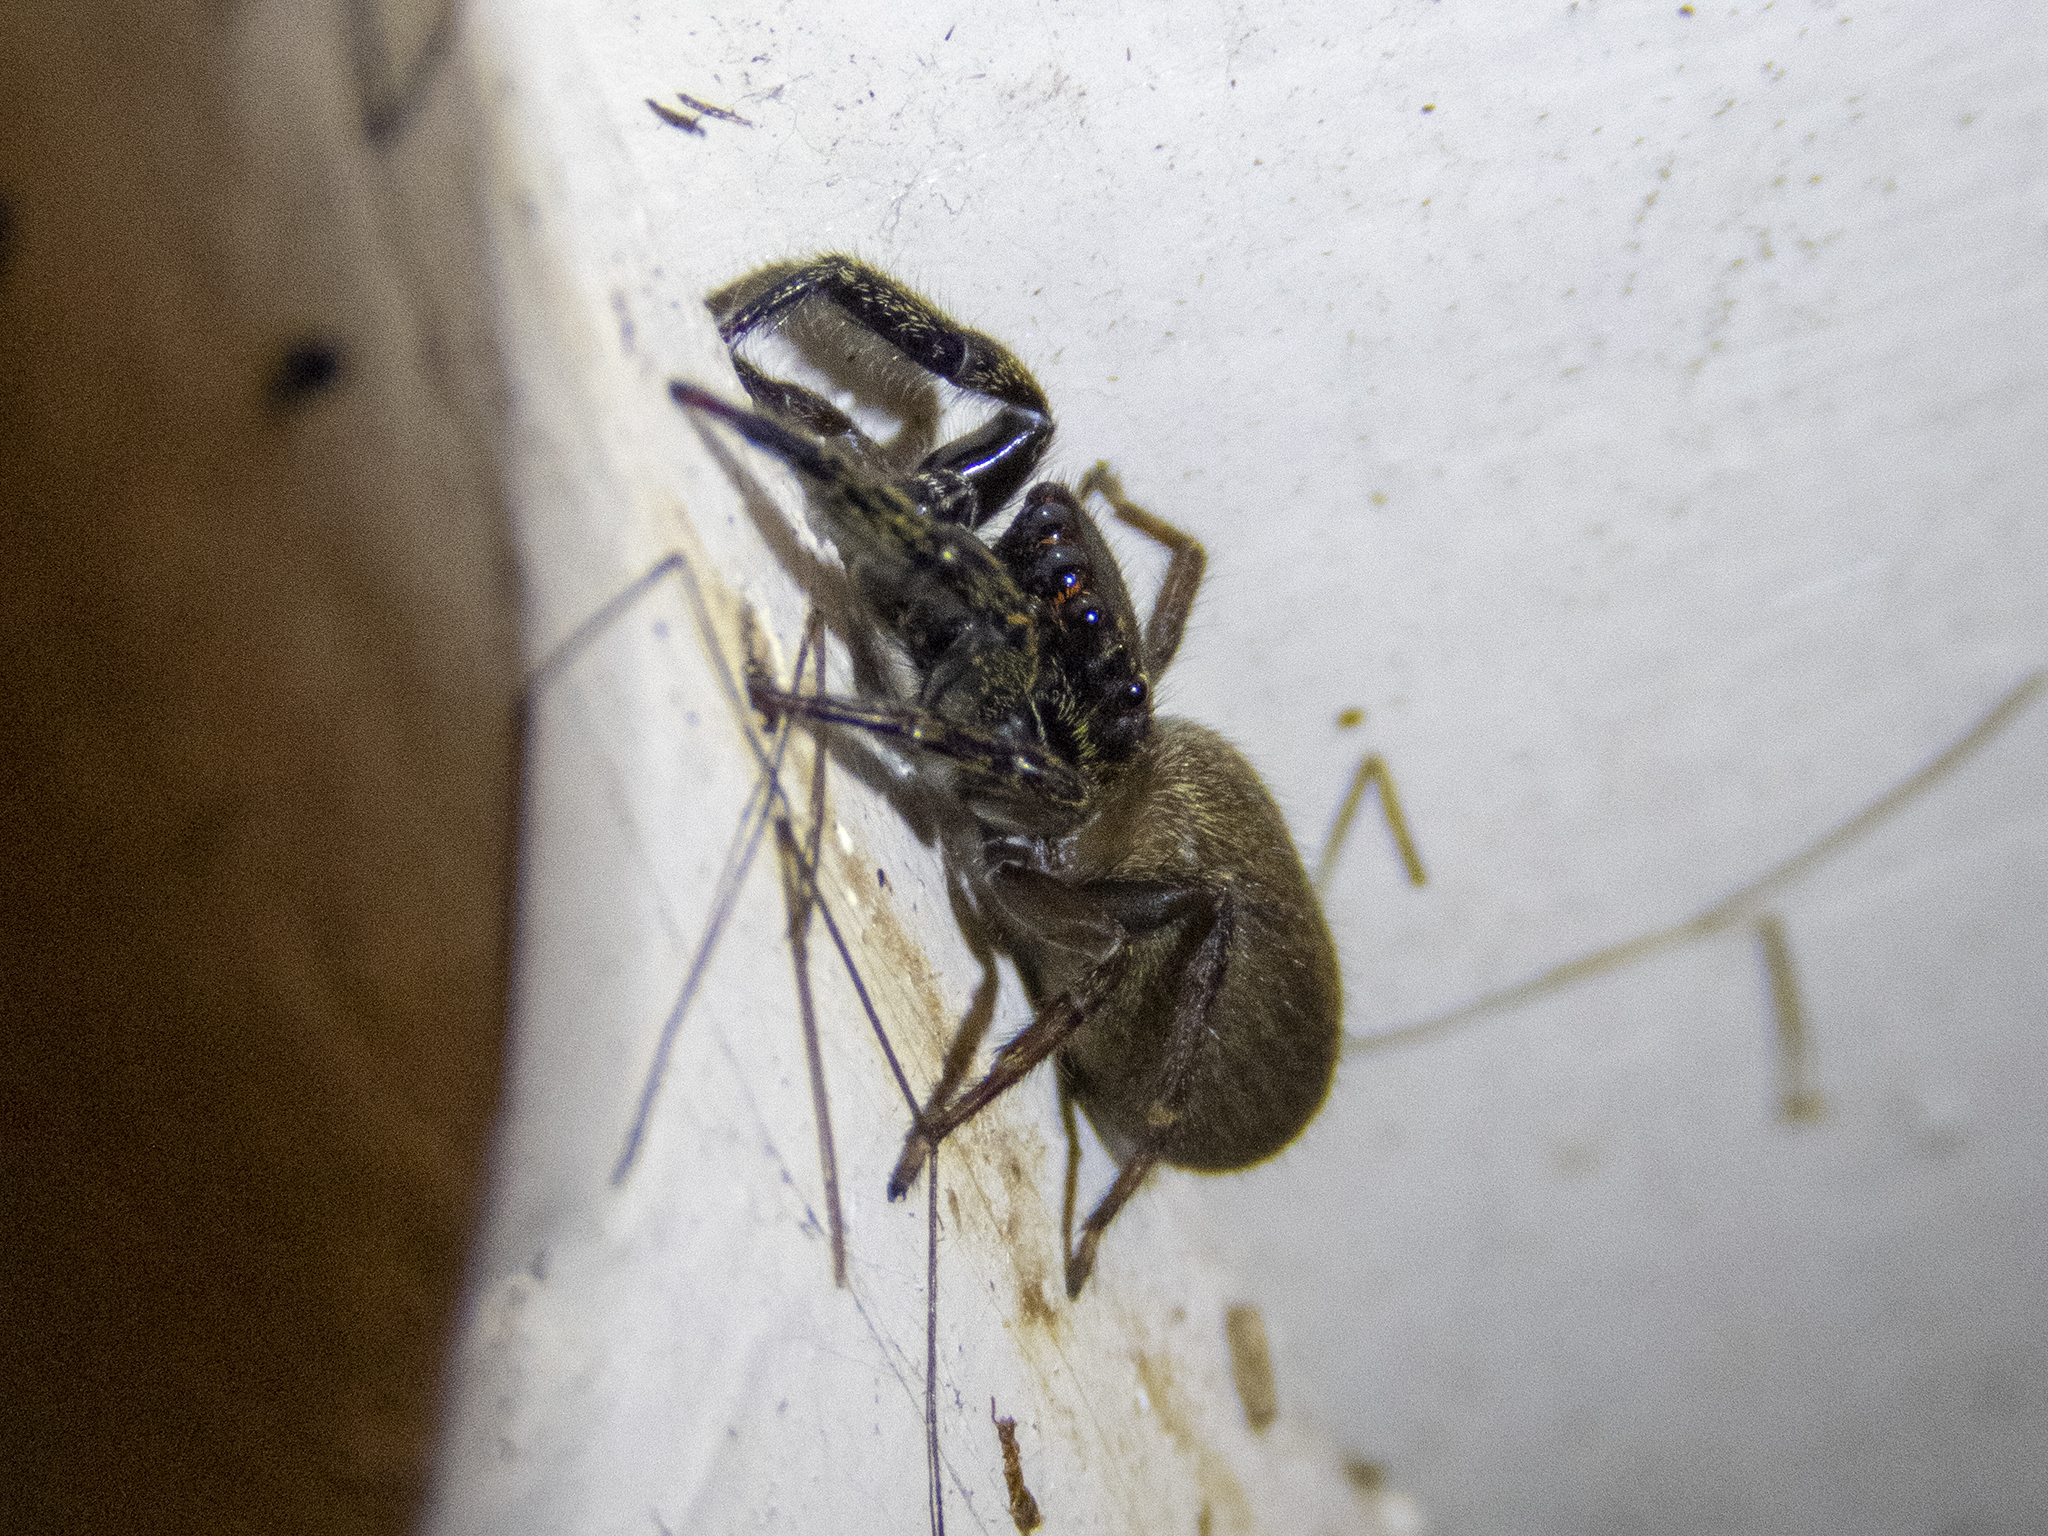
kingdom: Animalia
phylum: Arthropoda
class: Arachnida
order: Araneae
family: Salticidae
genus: Trite
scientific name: Trite auricoma
